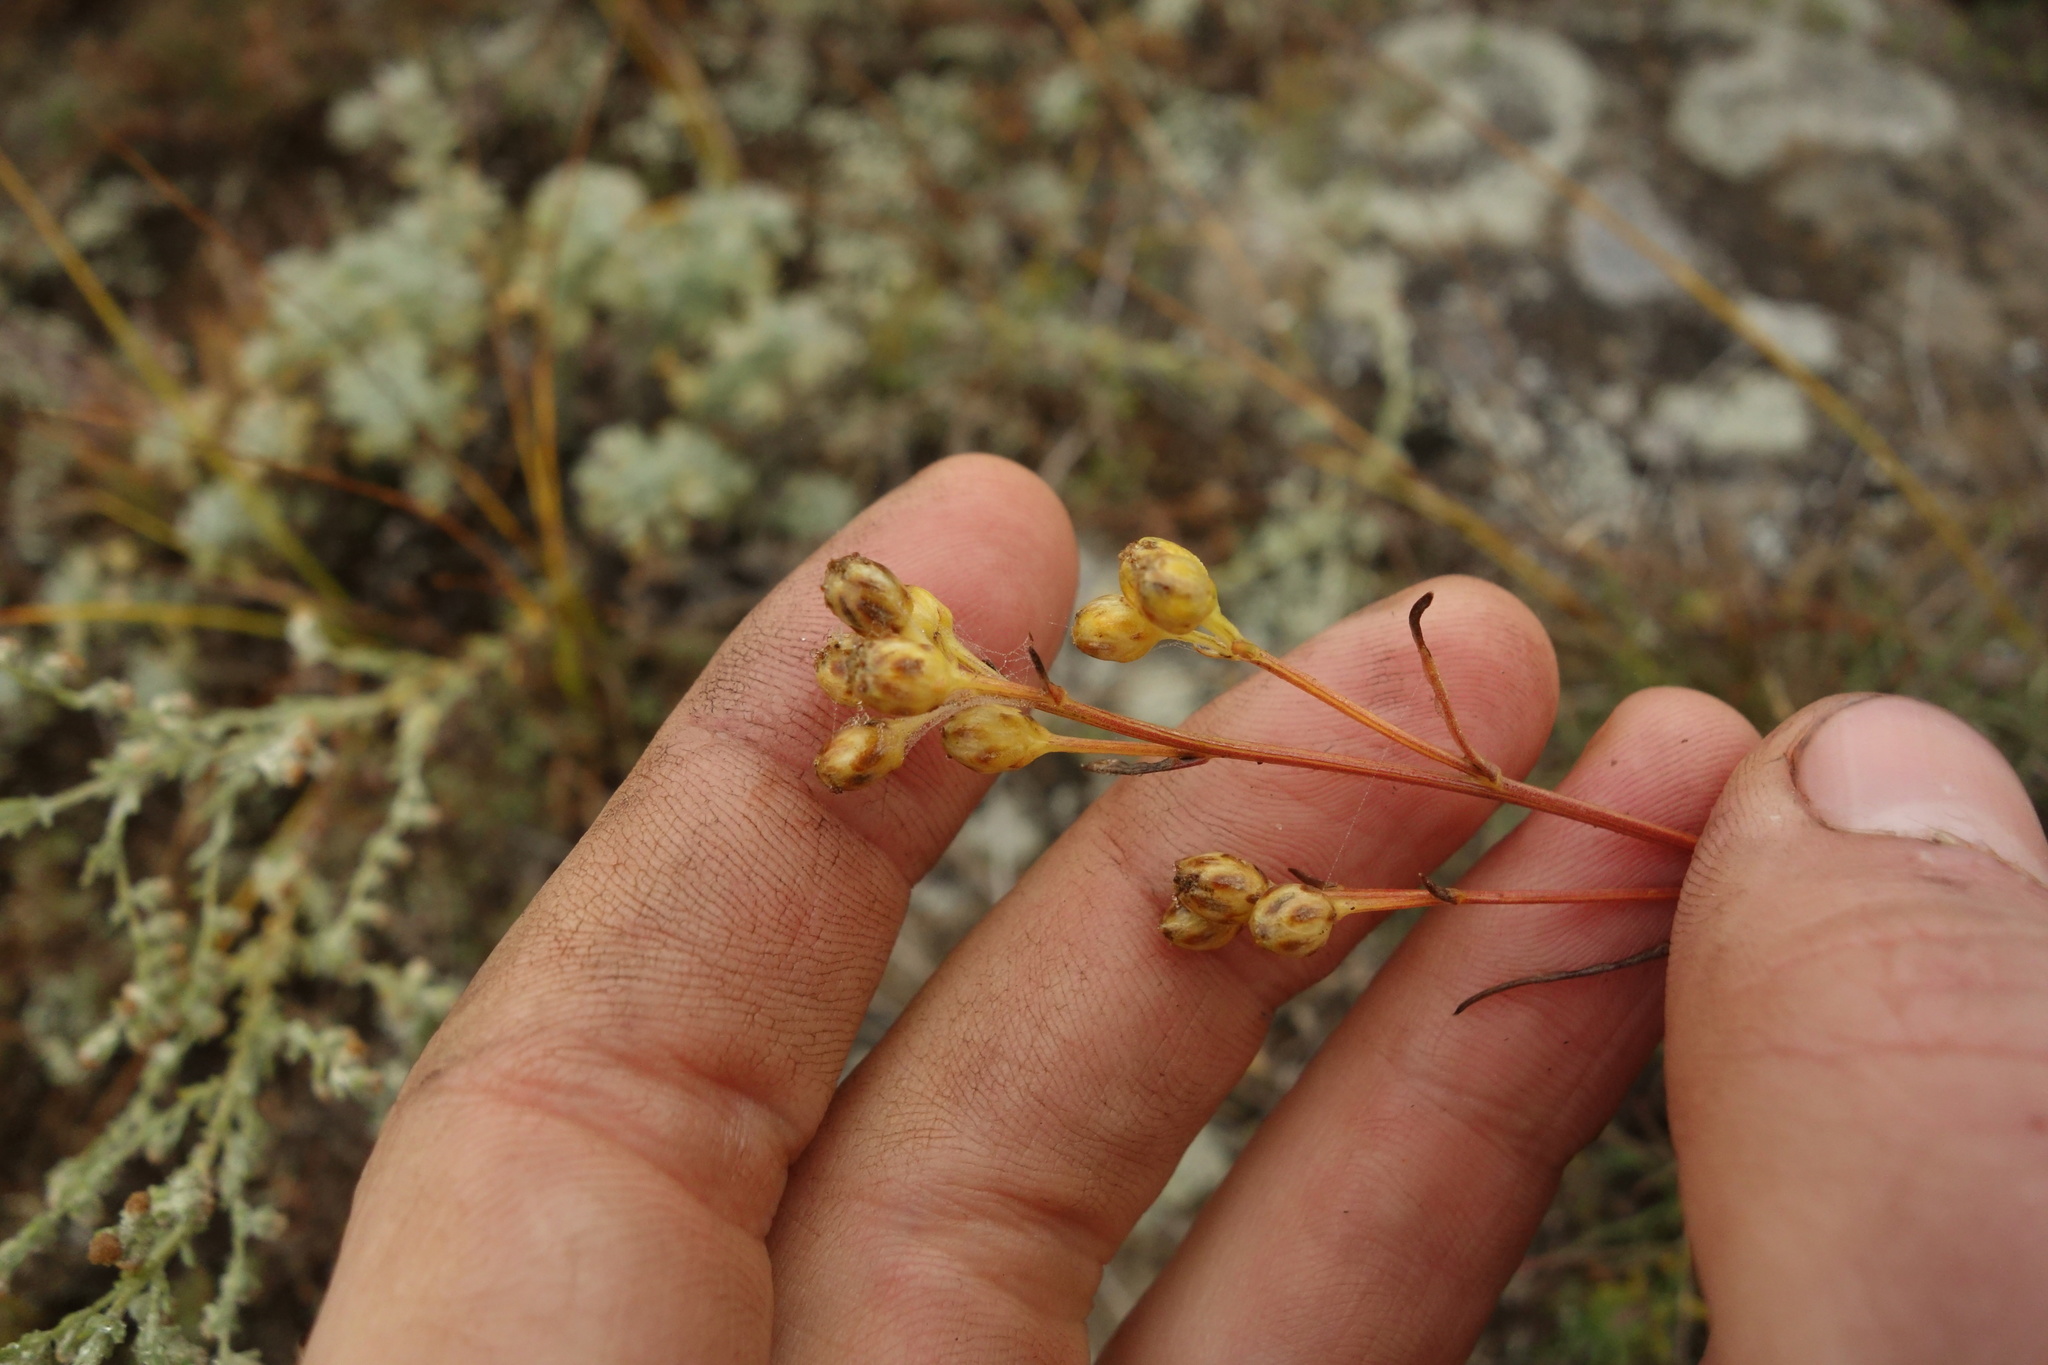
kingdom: Plantae
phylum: Tracheophyta
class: Magnoliopsida
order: Asterales
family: Asteraceae
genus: Filifolium
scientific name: Filifolium sibiricum
